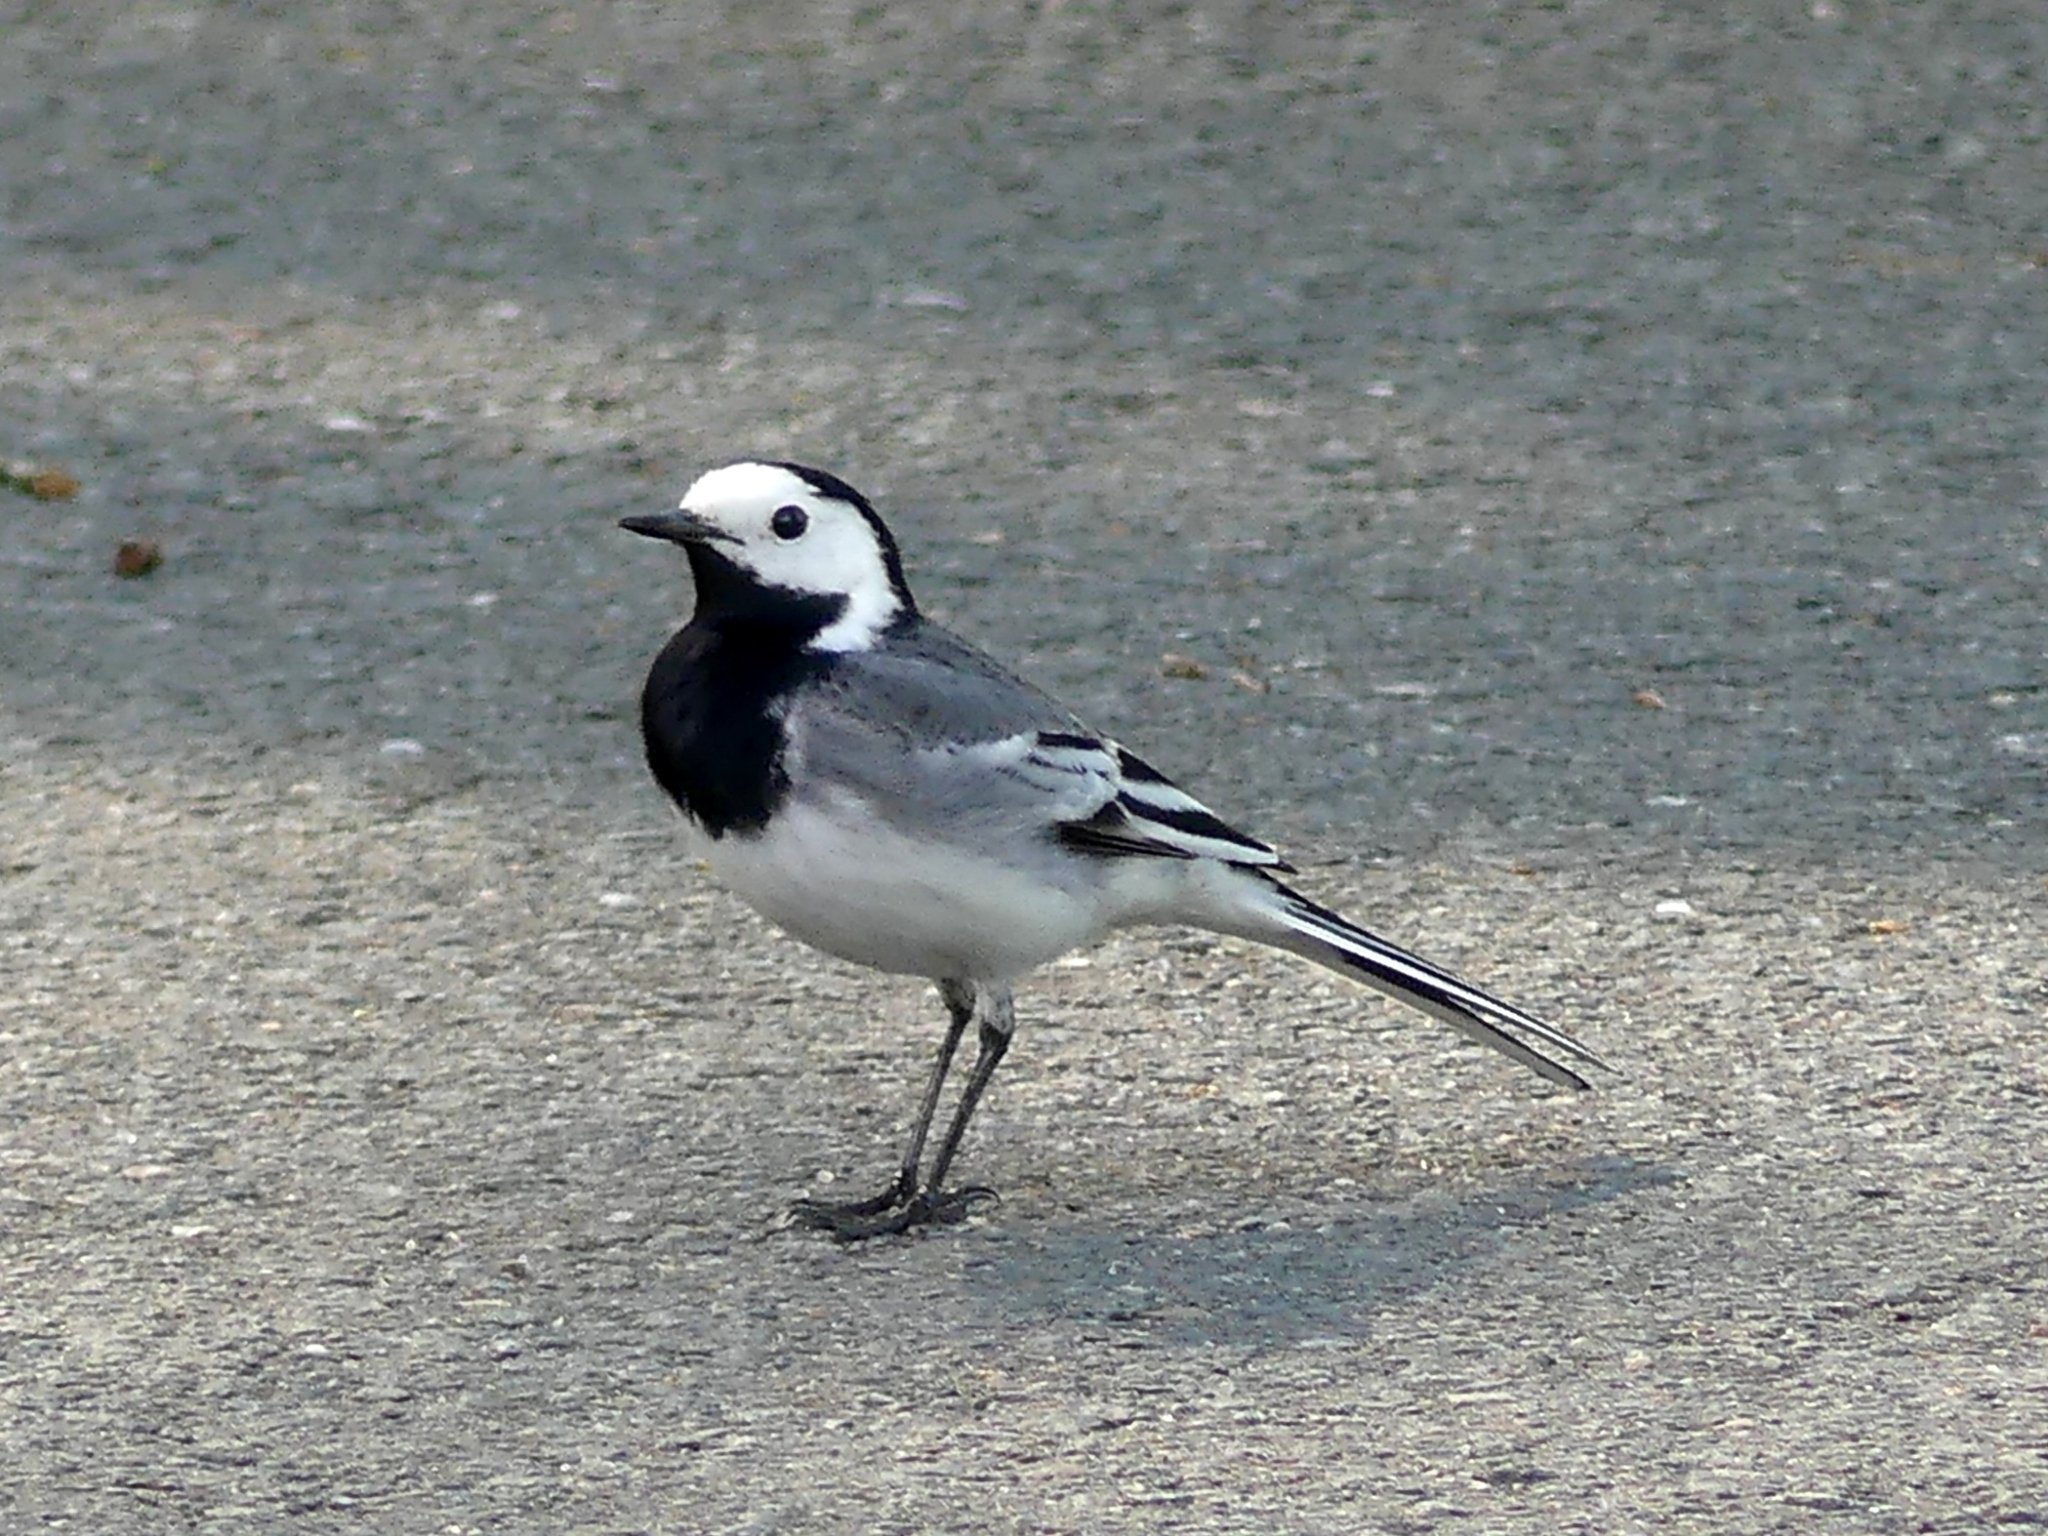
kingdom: Animalia
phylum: Chordata
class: Aves
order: Passeriformes
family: Motacillidae
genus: Motacilla
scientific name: Motacilla alba
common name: White wagtail
